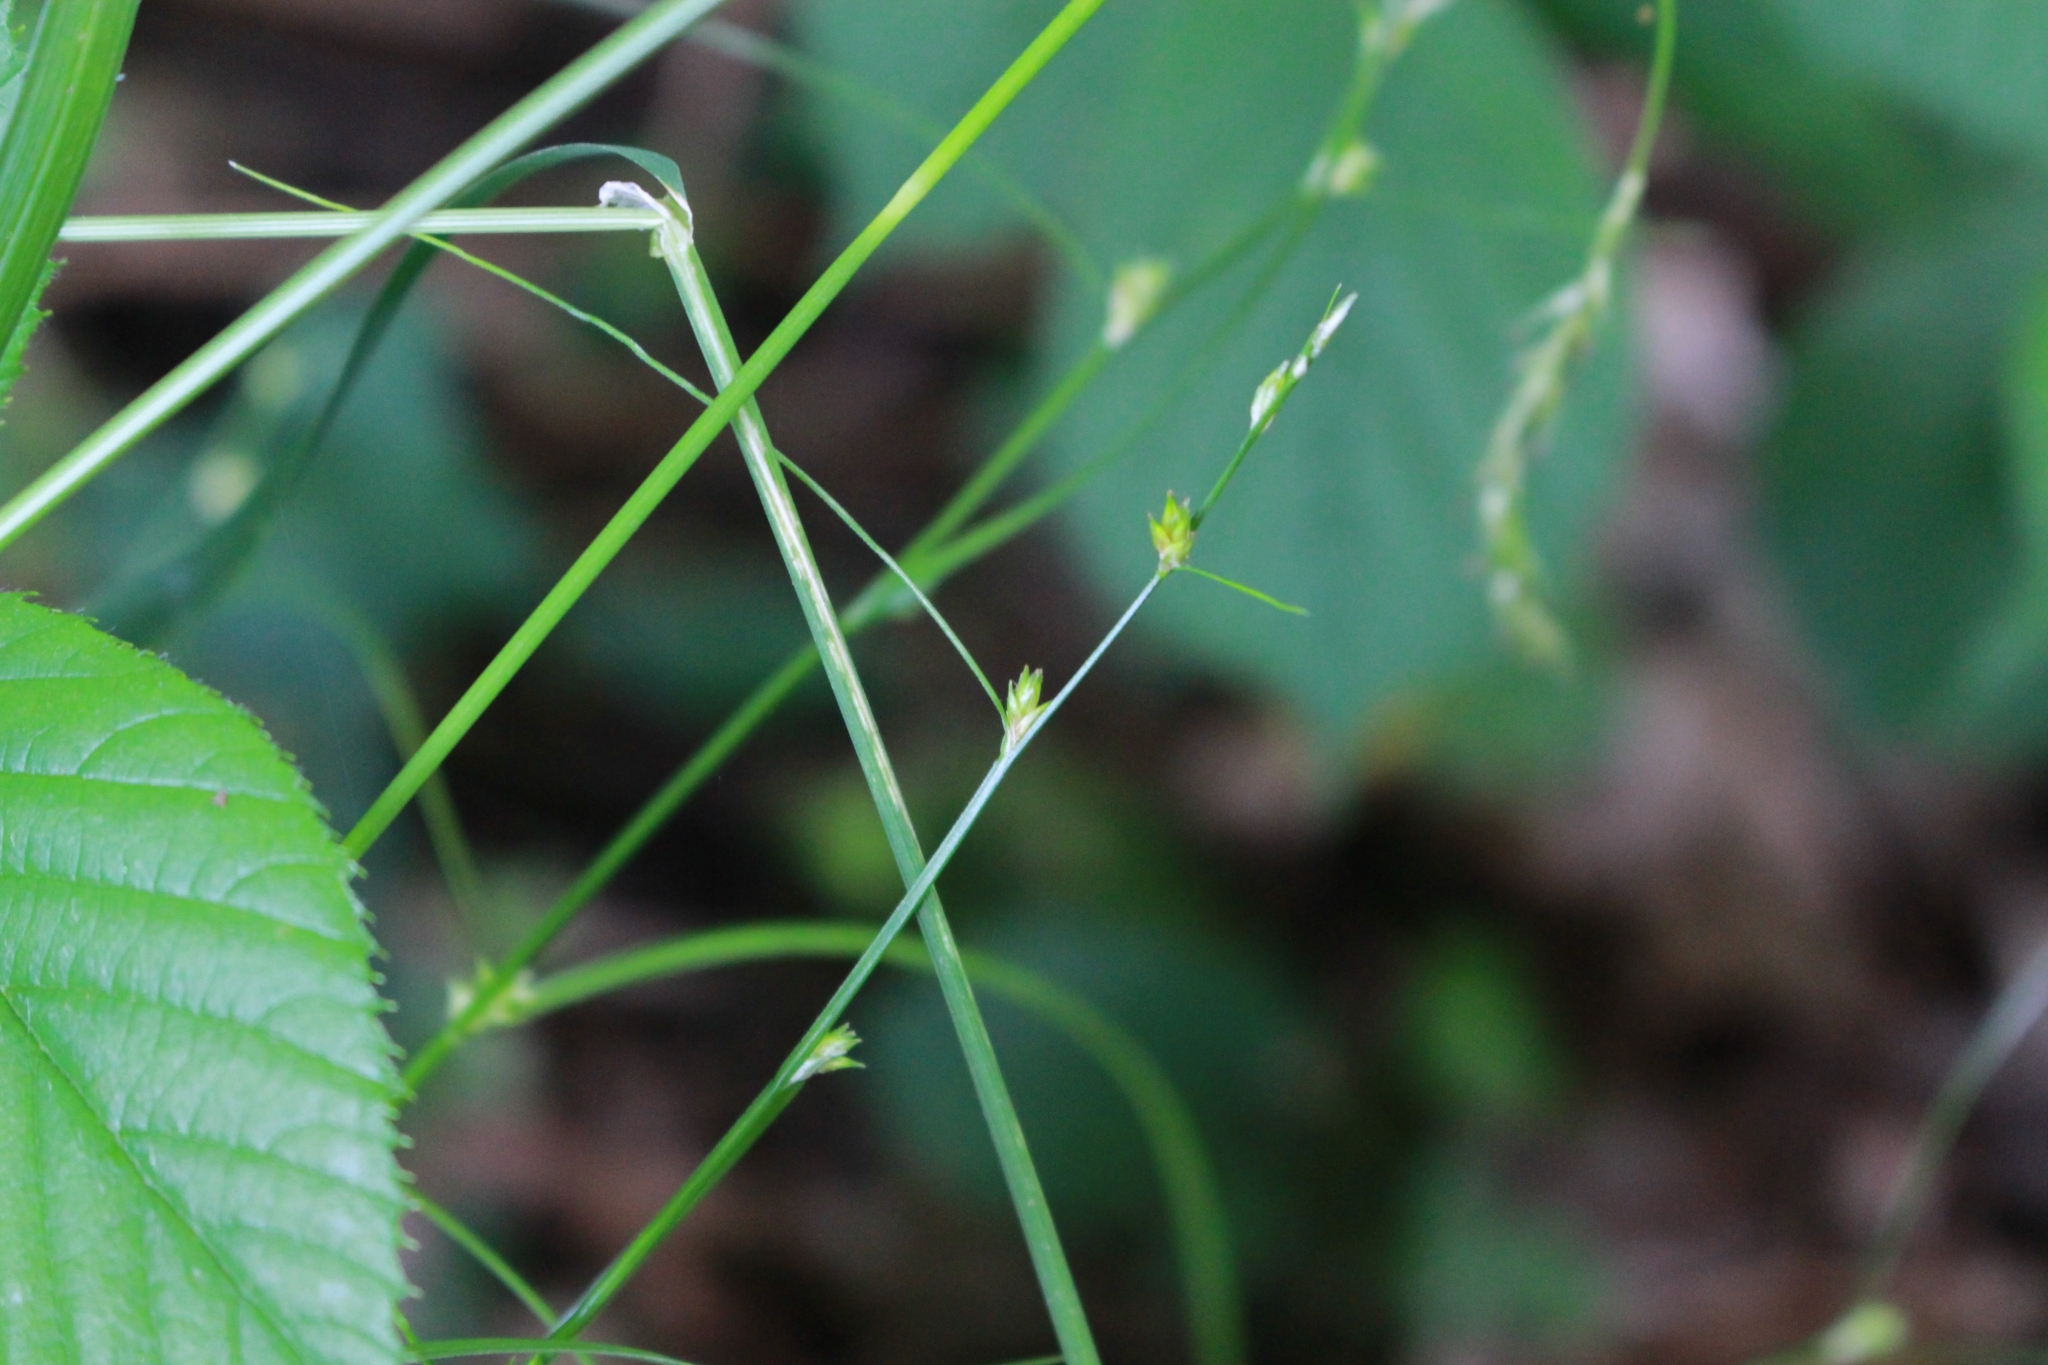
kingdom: Plantae
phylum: Tracheophyta
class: Liliopsida
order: Poales
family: Cyperaceae
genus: Carex
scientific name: Carex remota
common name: Remote sedge
